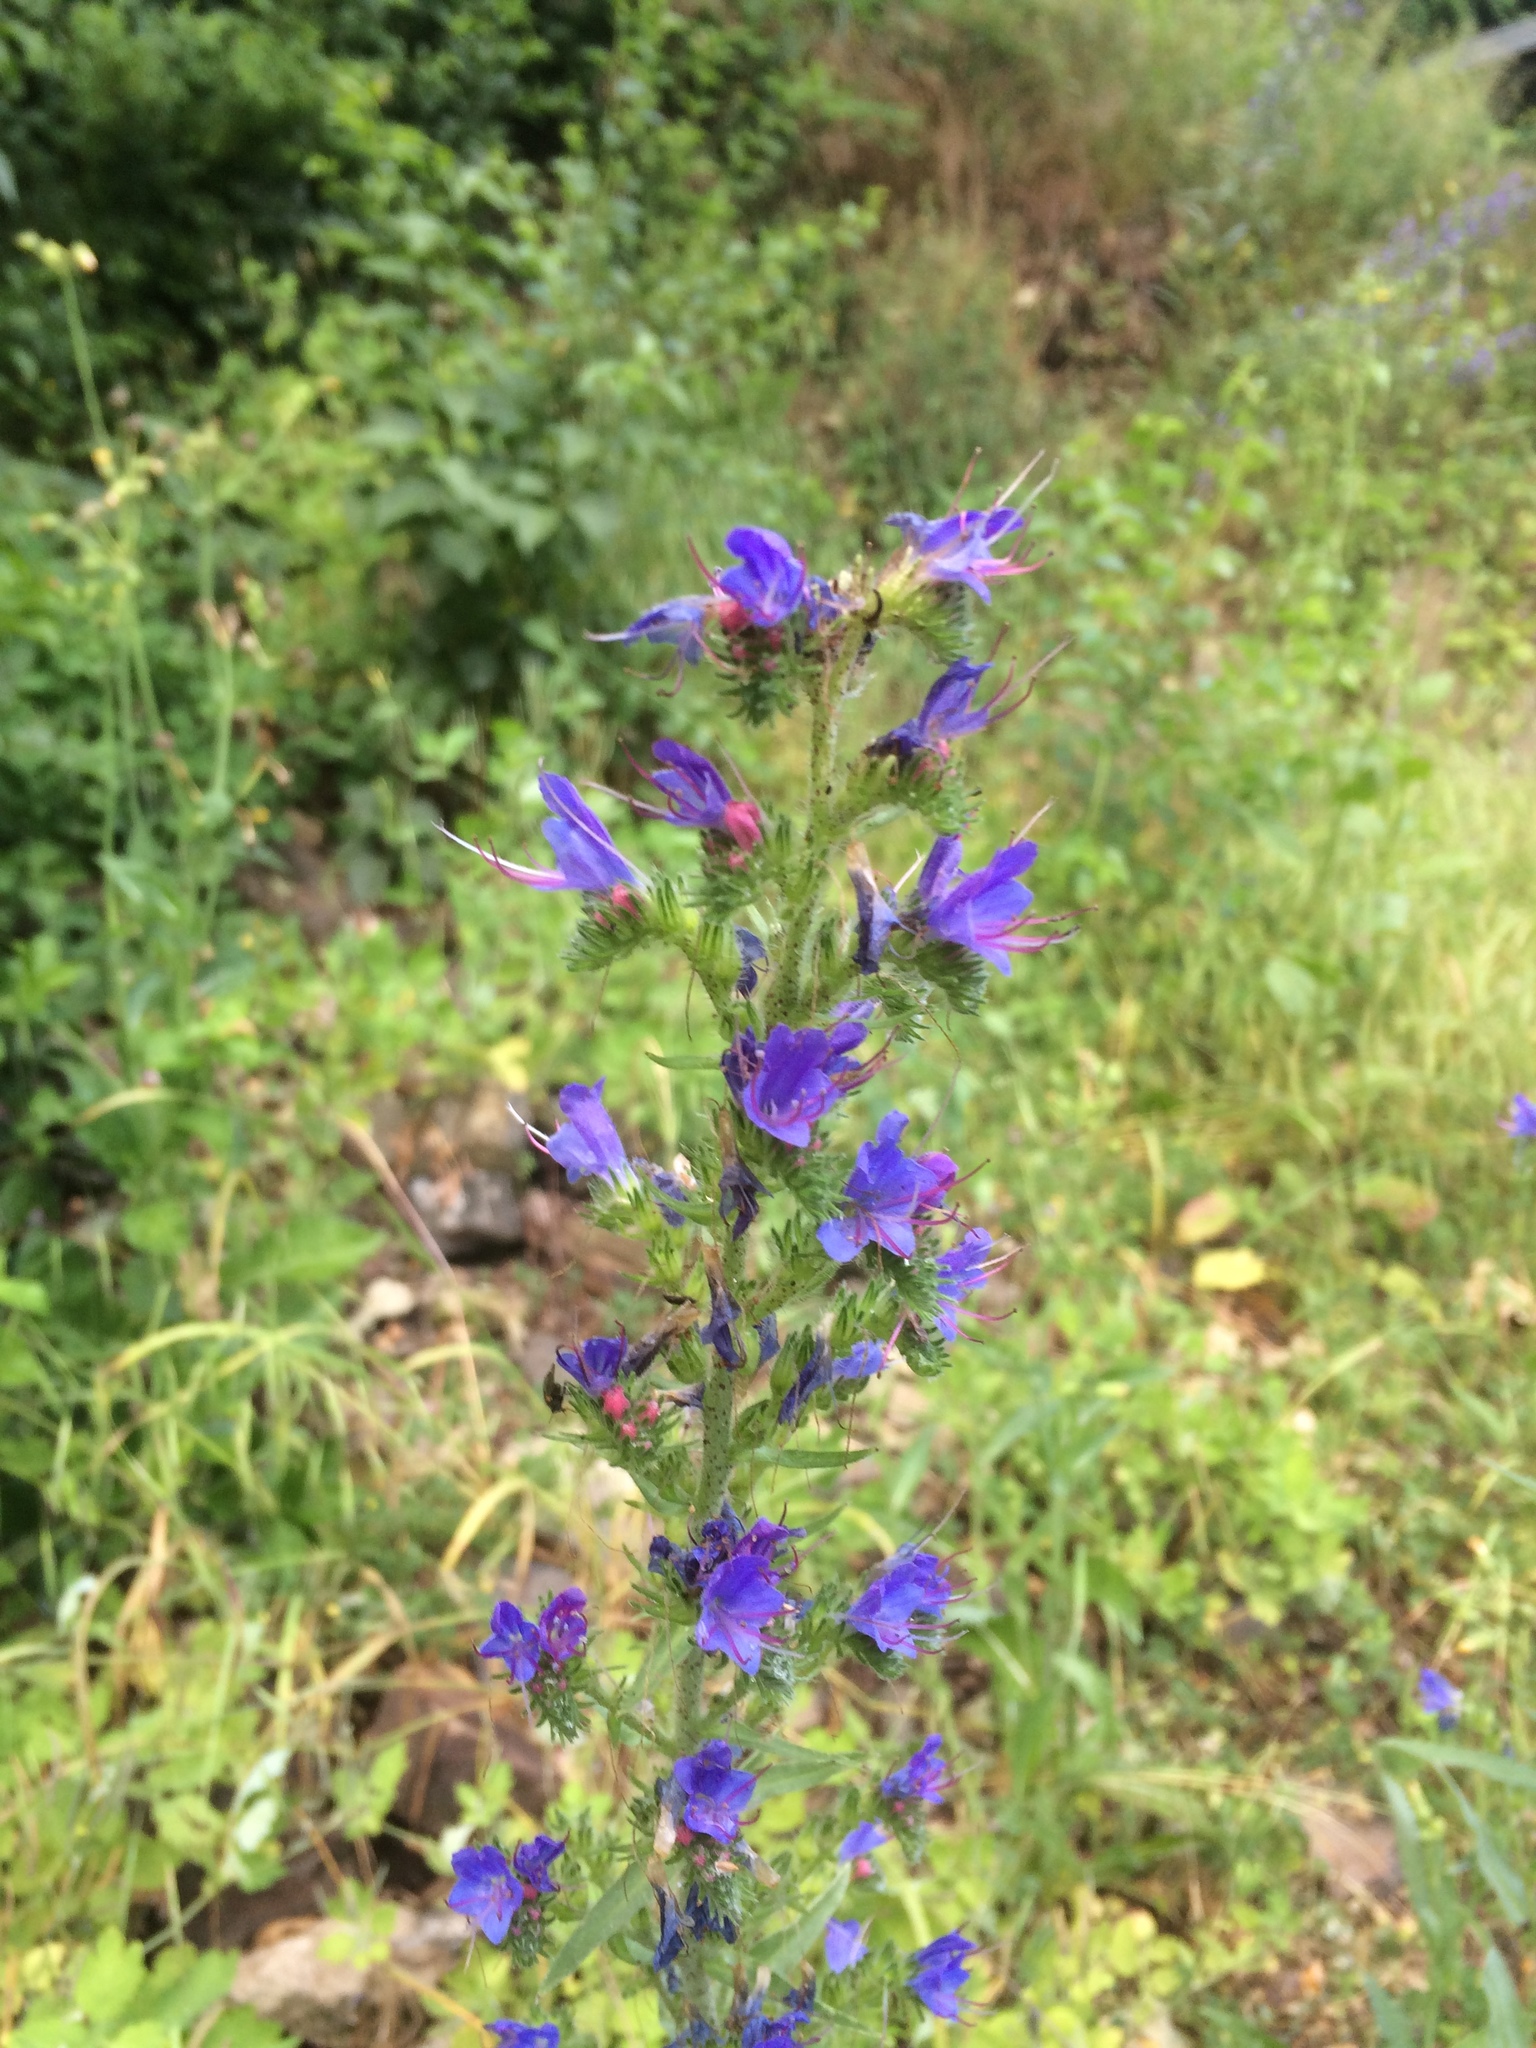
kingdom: Plantae
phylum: Tracheophyta
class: Magnoliopsida
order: Boraginales
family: Boraginaceae
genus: Echium
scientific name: Echium vulgare
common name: Common viper's bugloss
